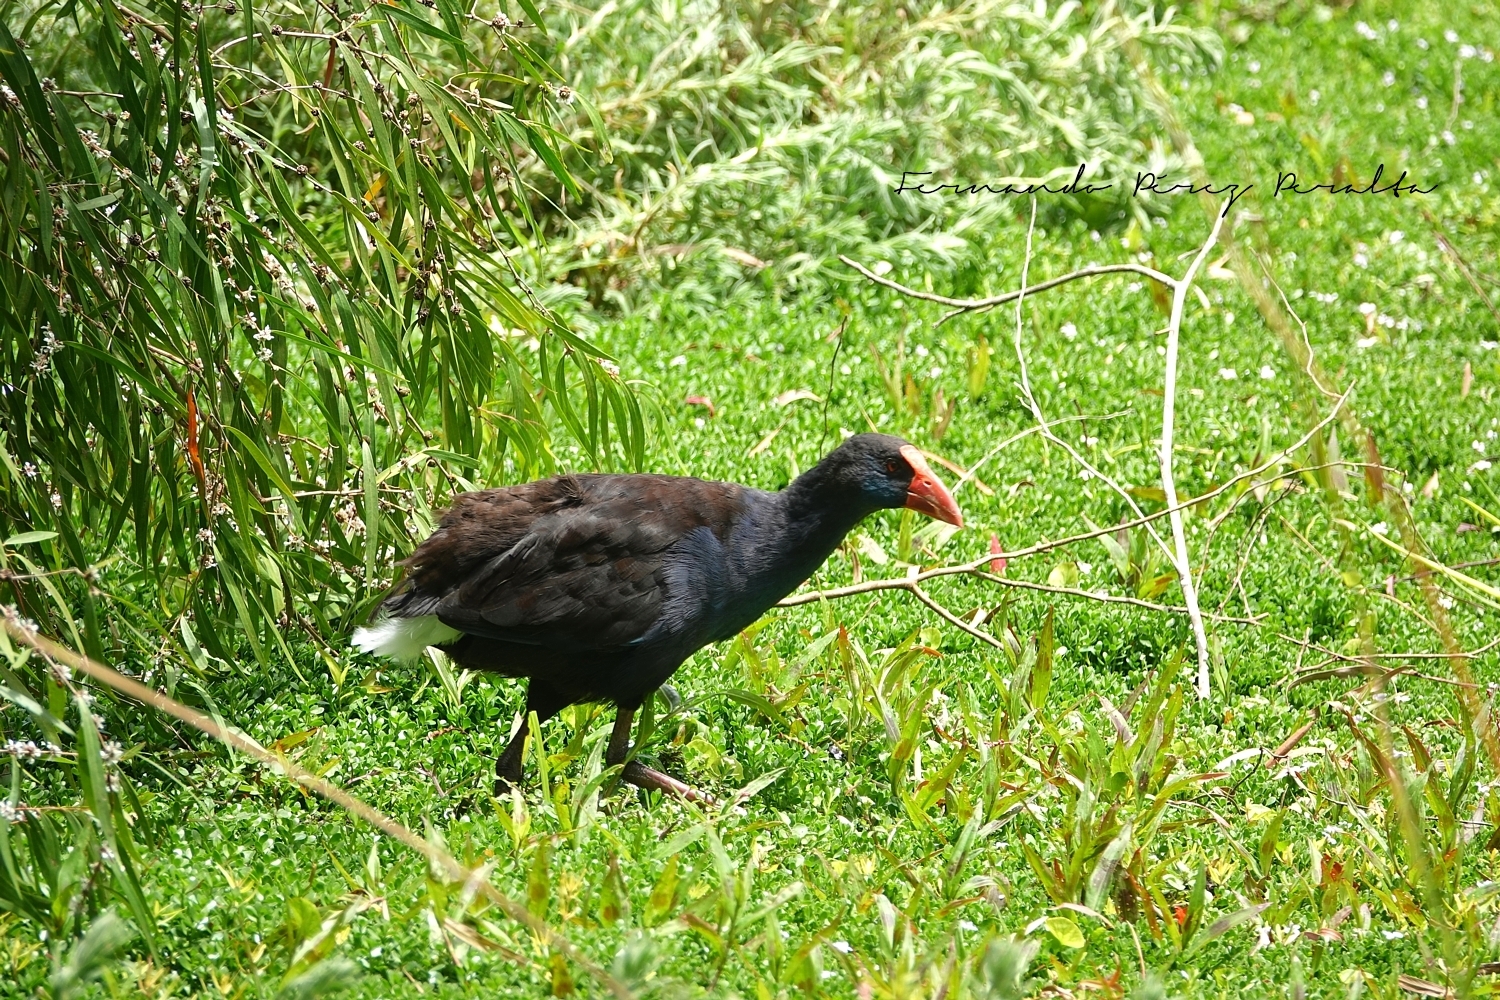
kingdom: Animalia
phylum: Chordata
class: Aves
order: Gruiformes
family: Rallidae
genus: Porphyrio
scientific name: Porphyrio melanotus
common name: Australasian swamphen
